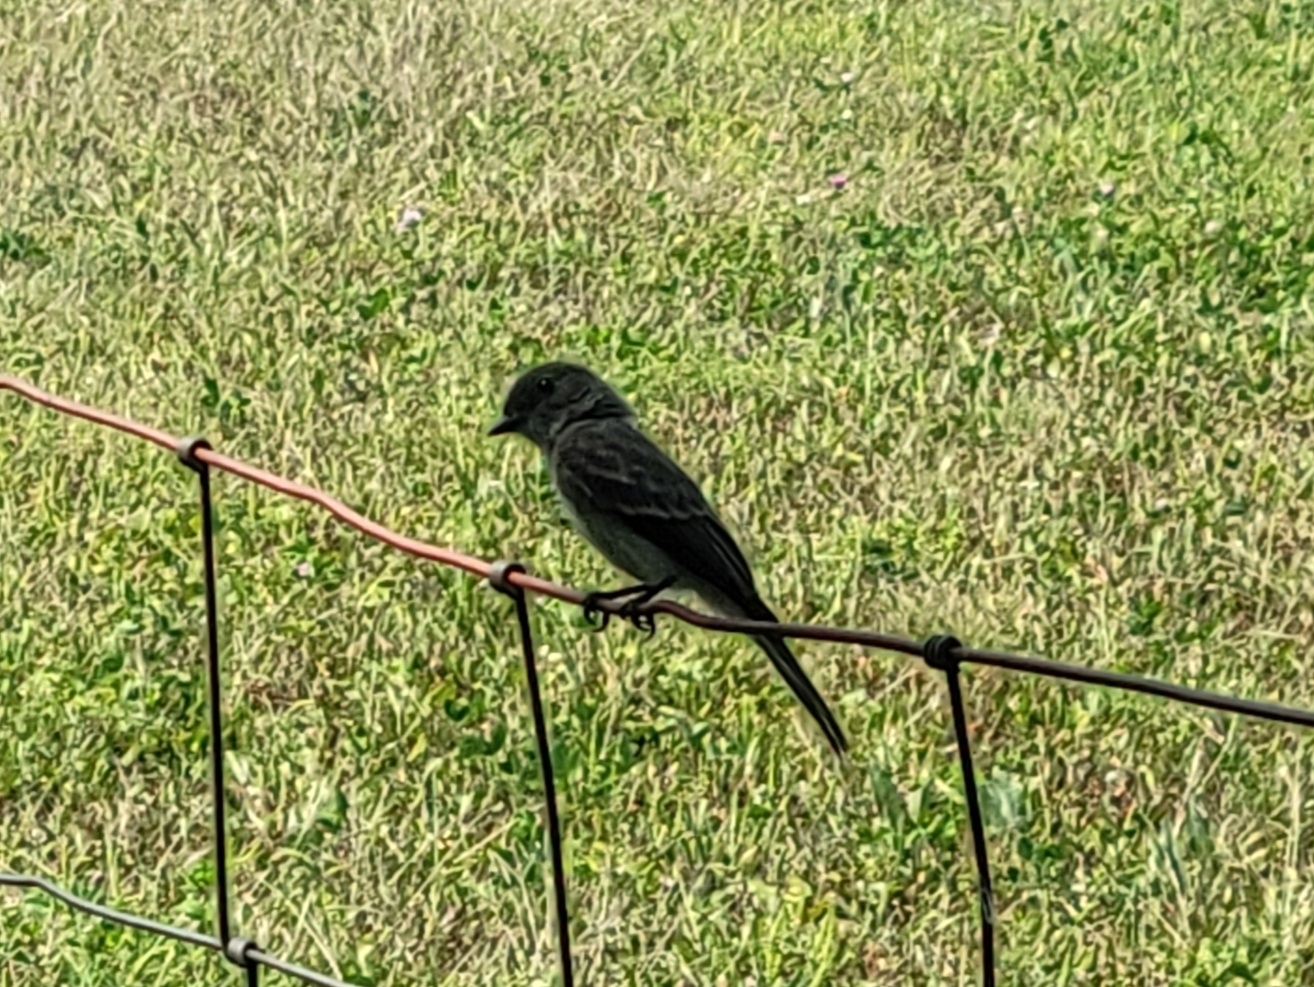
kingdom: Animalia
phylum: Chordata
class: Aves
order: Passeriformes
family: Tyrannidae
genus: Sayornis
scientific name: Sayornis phoebe
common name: Eastern phoebe
